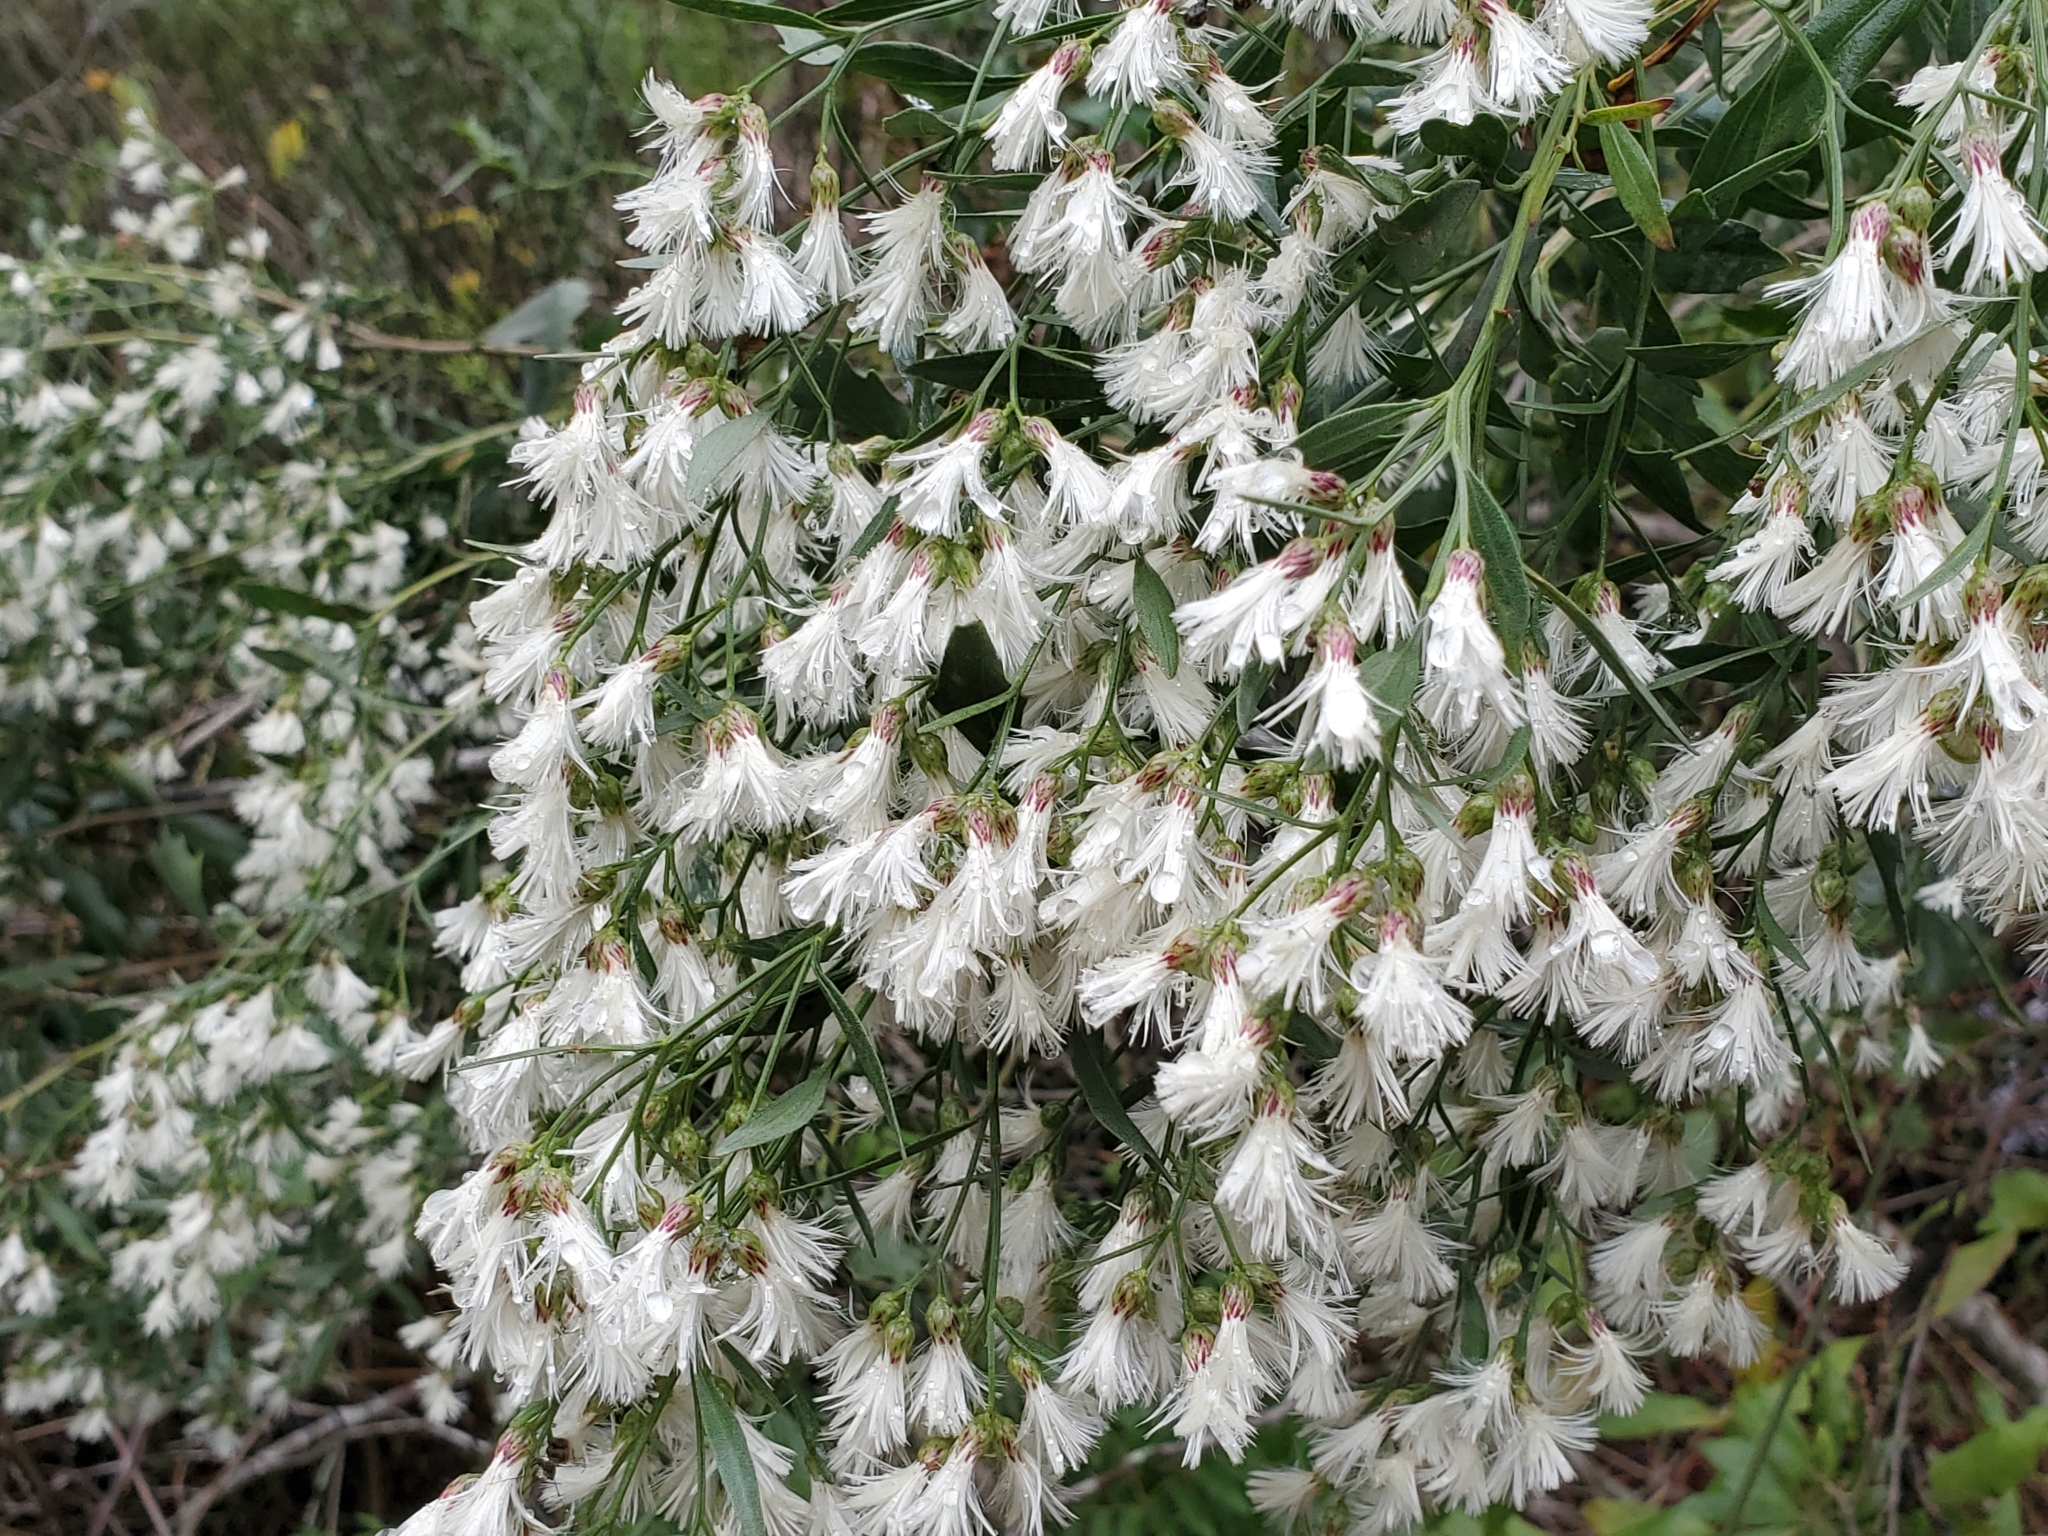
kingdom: Plantae
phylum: Tracheophyta
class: Magnoliopsida
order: Asterales
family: Asteraceae
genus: Baccharis
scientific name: Baccharis halimifolia
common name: Eastern baccharis
